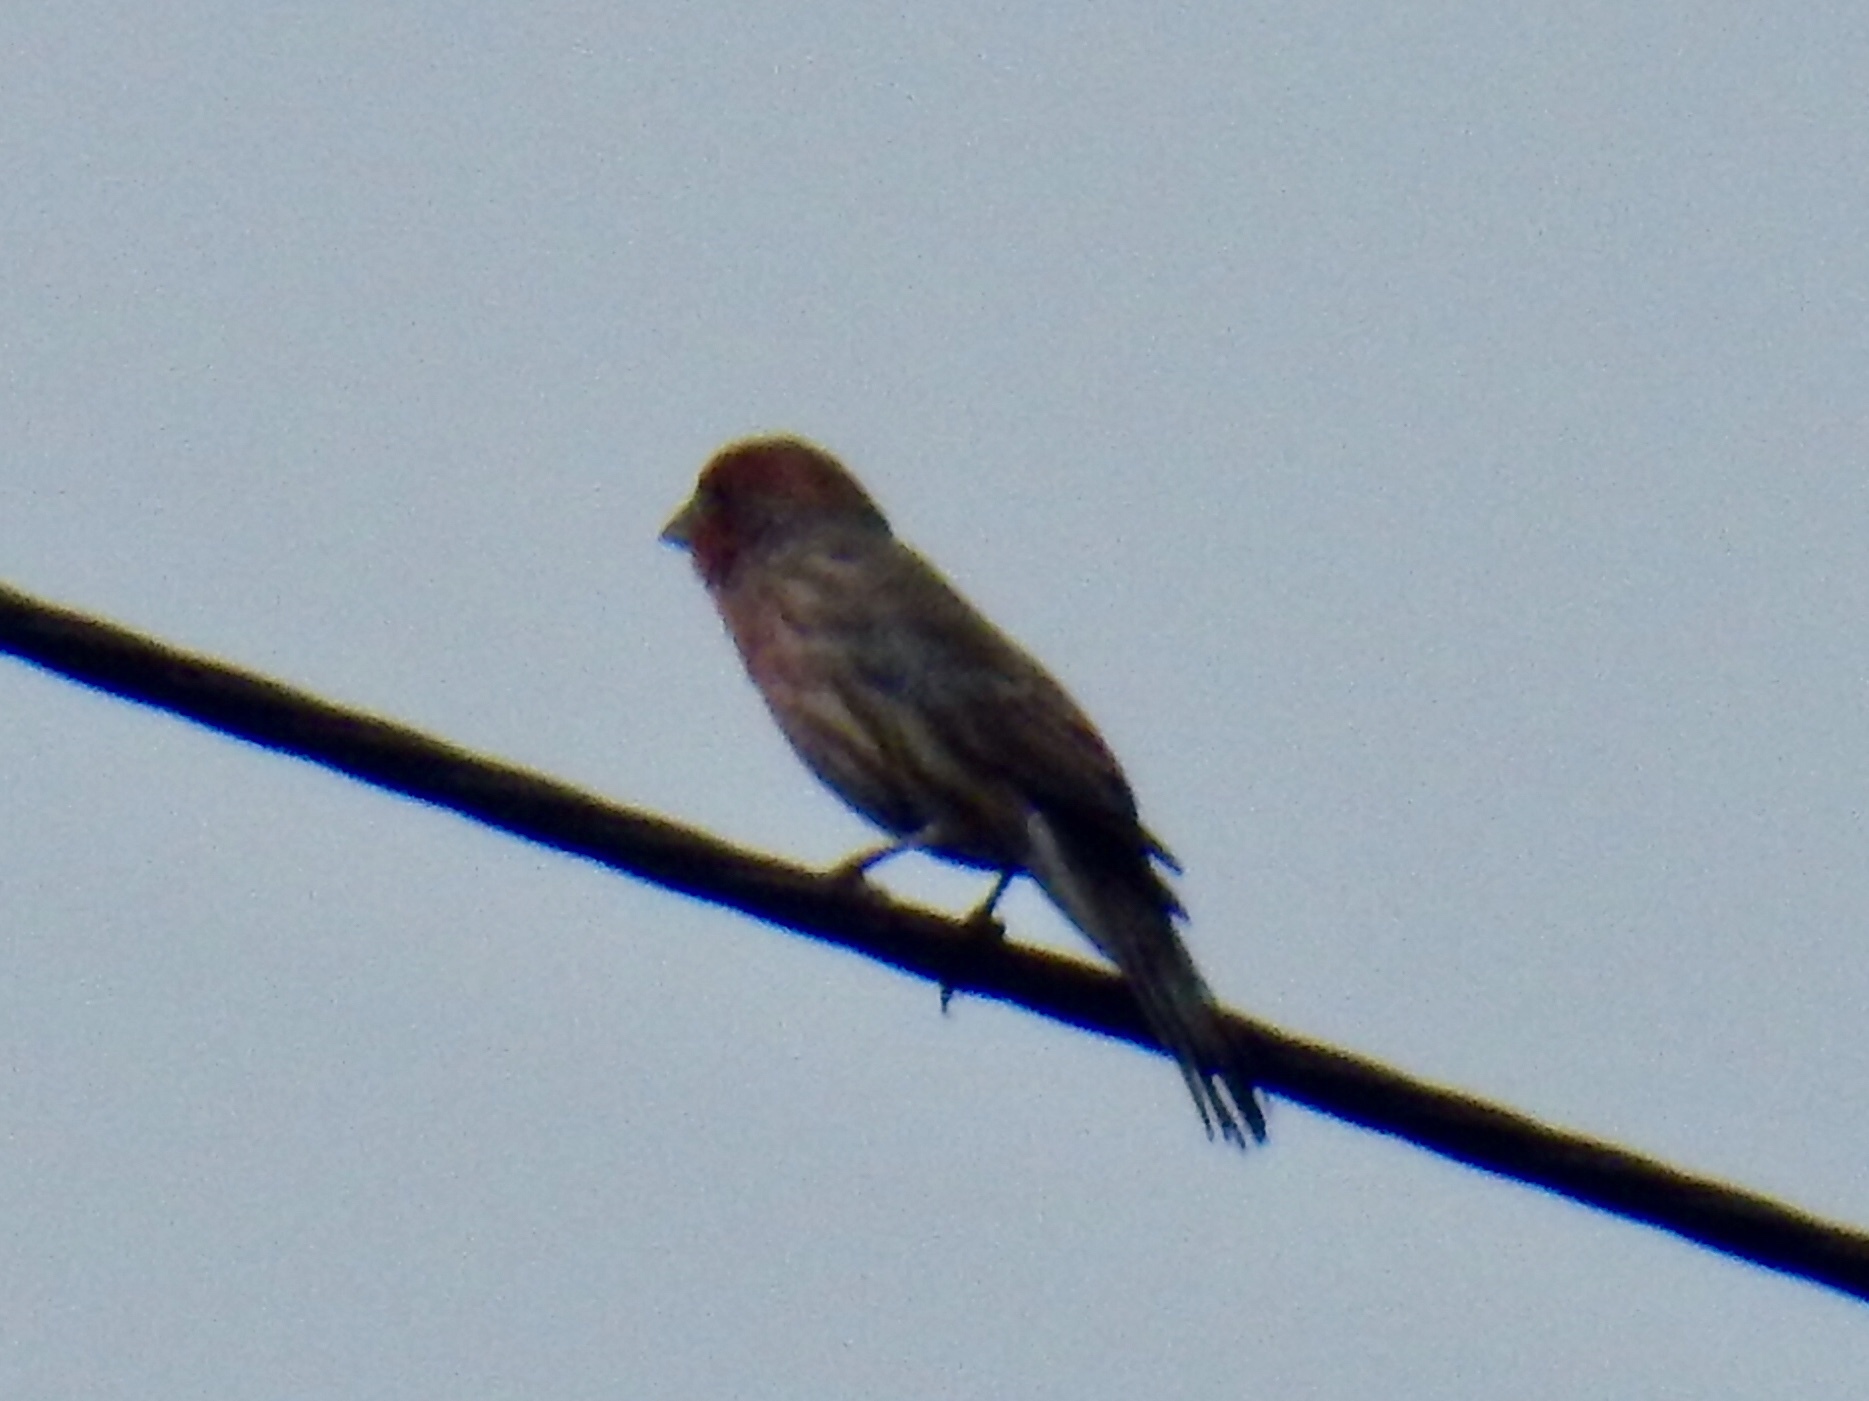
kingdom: Animalia
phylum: Chordata
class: Aves
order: Passeriformes
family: Fringillidae
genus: Haemorhous
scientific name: Haemorhous mexicanus
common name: House finch
